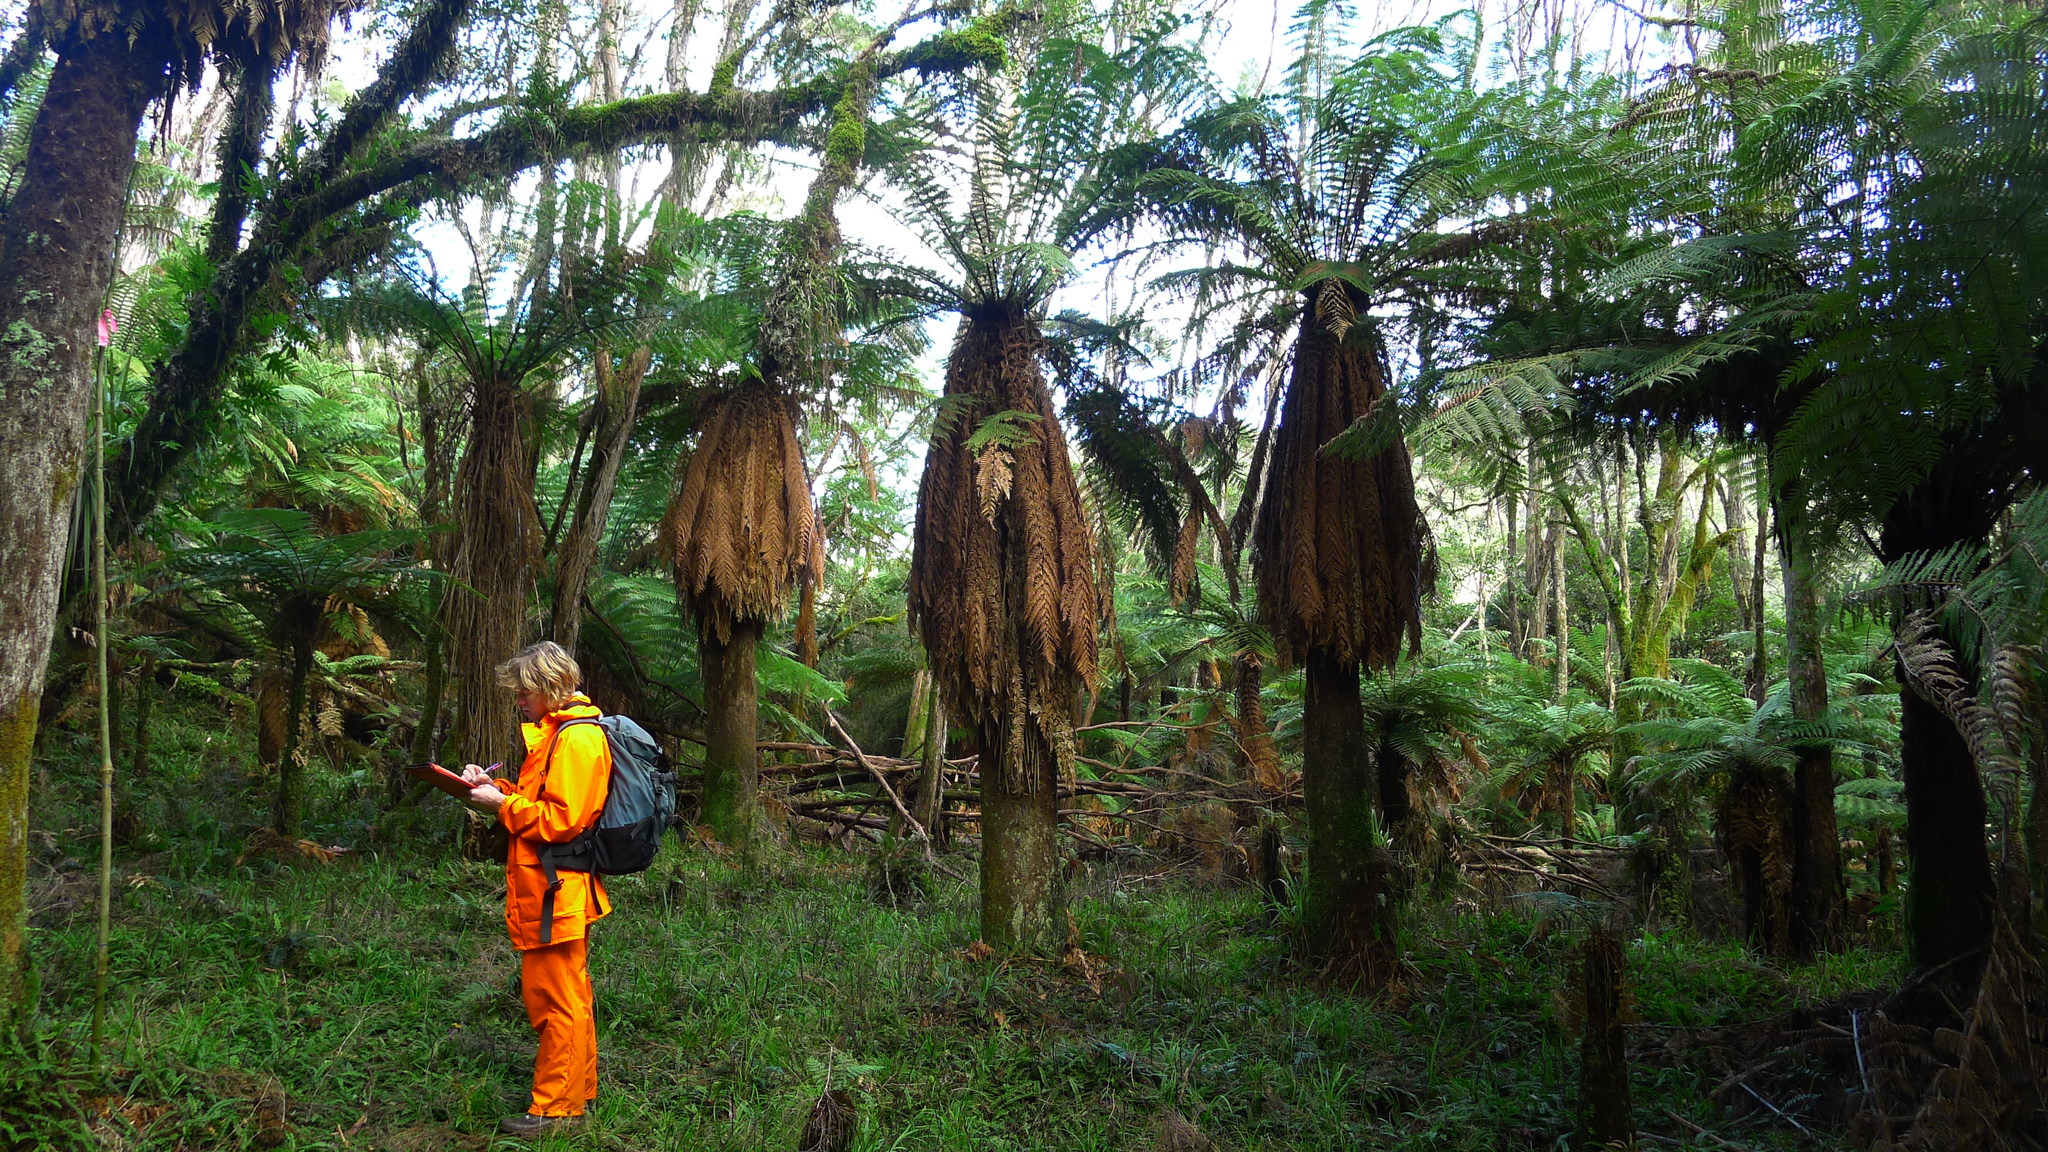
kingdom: Plantae
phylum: Tracheophyta
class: Polypodiopsida
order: Cyatheales
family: Dicksoniaceae
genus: Dicksonia
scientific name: Dicksonia fibrosa
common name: Golden tree fern
